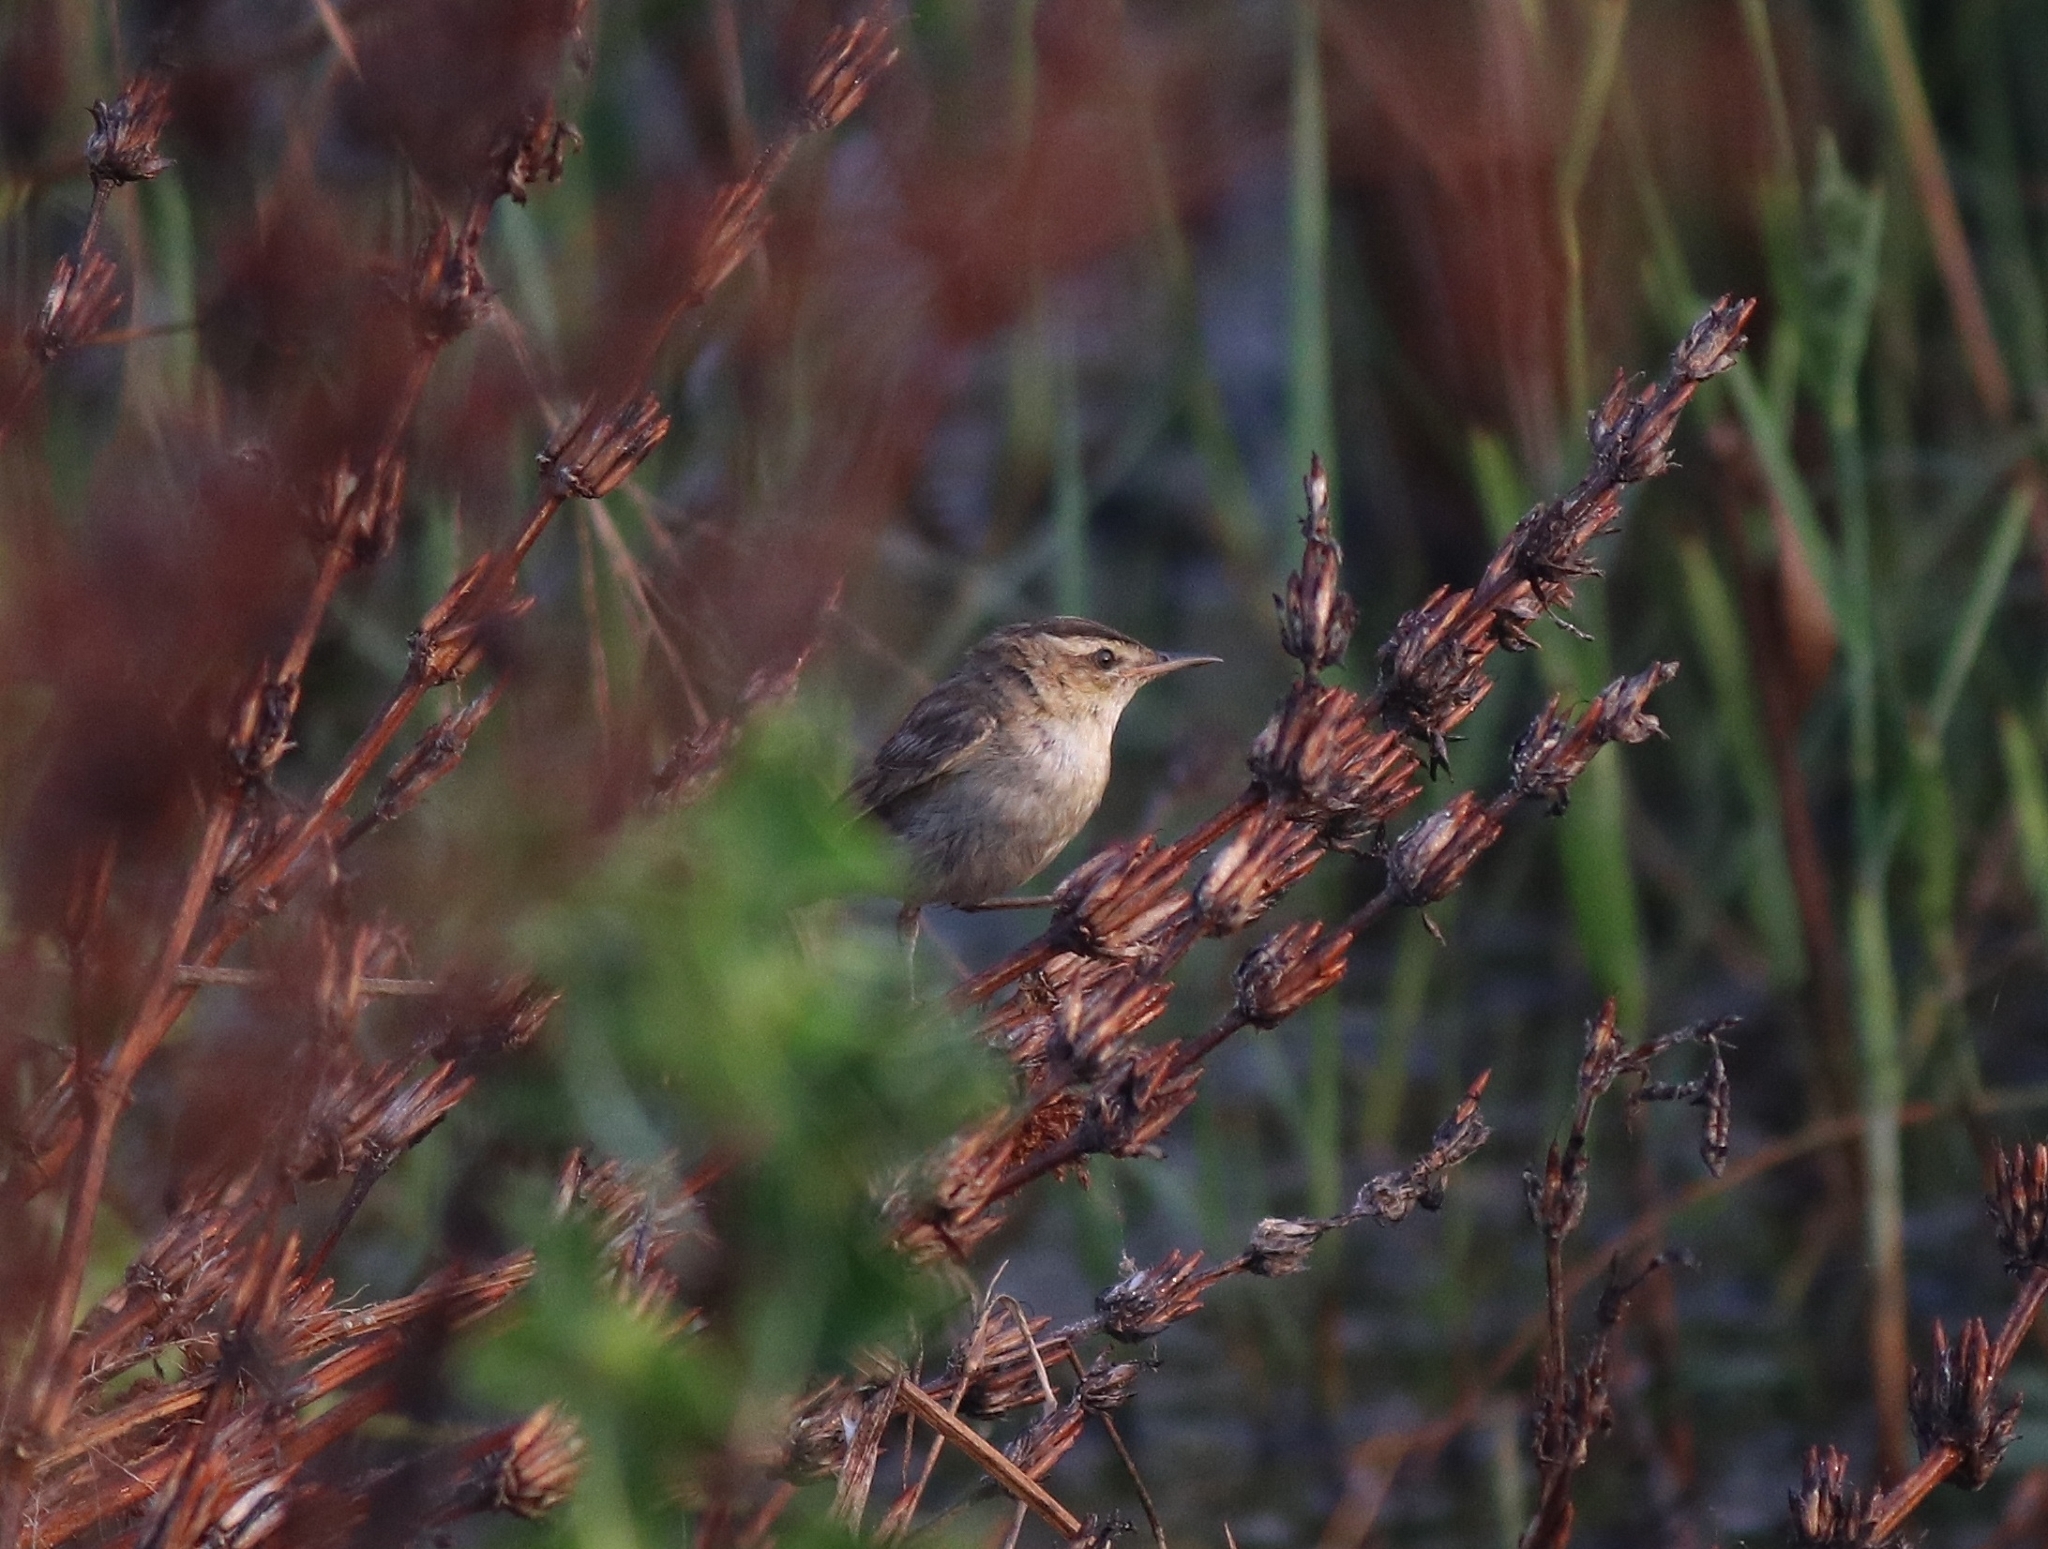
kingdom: Animalia
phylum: Chordata
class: Aves
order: Passeriformes
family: Acrocephalidae
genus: Acrocephalus
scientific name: Acrocephalus schoenobaenus
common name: Sedge warbler
